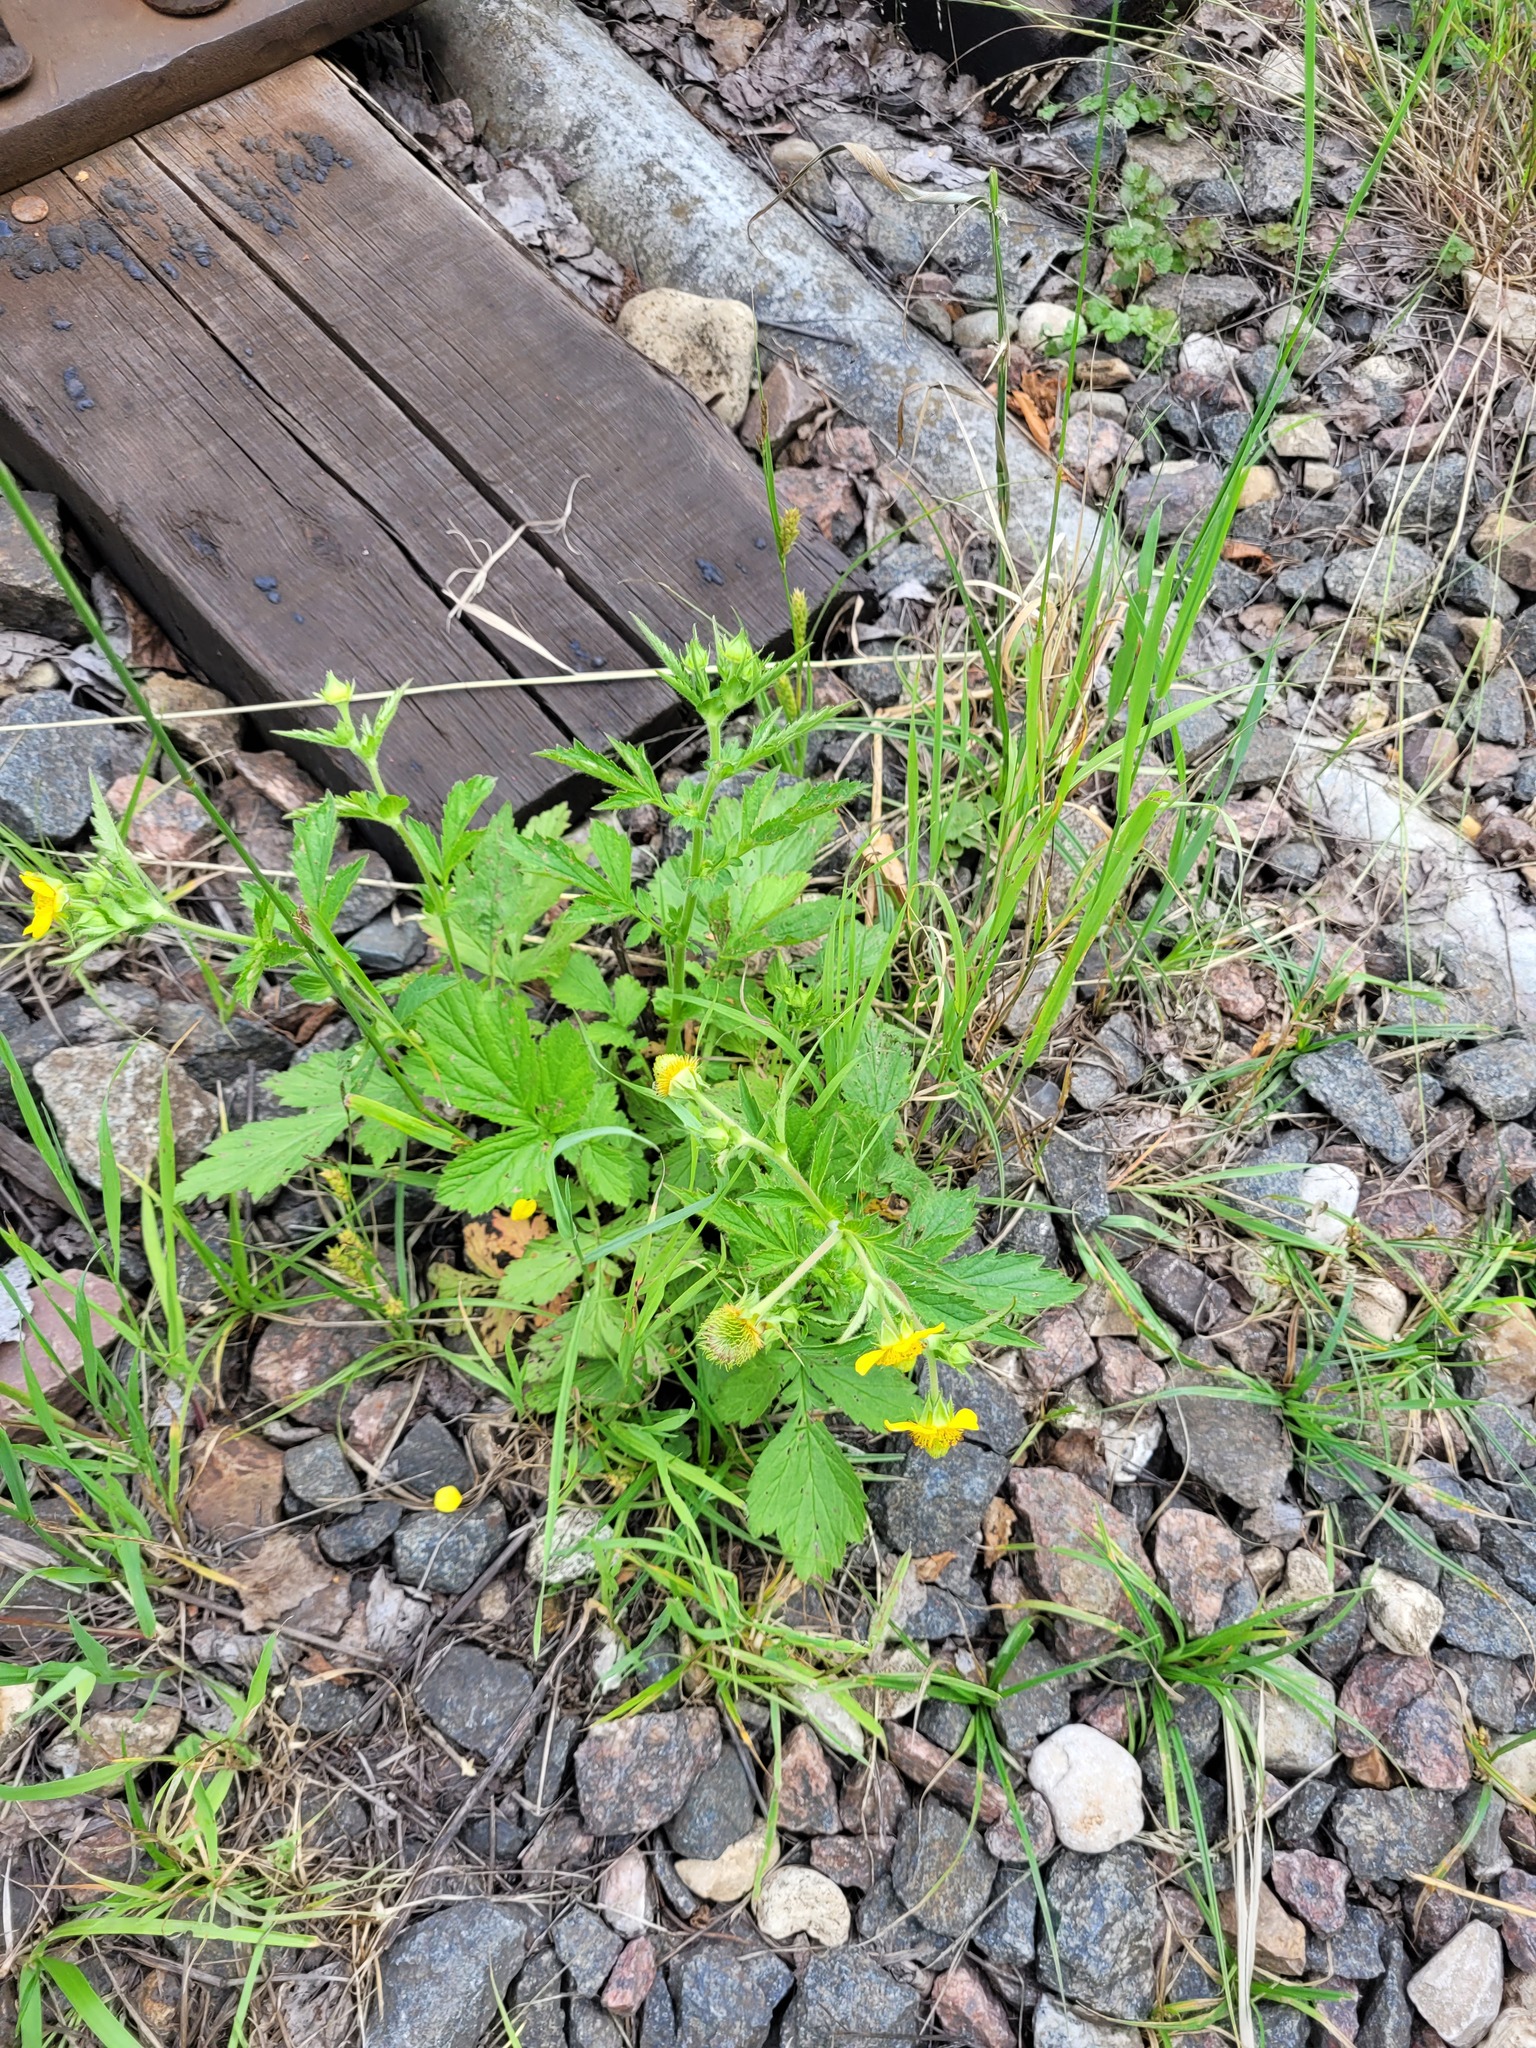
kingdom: Plantae
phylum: Tracheophyta
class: Magnoliopsida
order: Rosales
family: Rosaceae
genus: Geum
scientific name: Geum aleppicum
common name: Yellow avens
